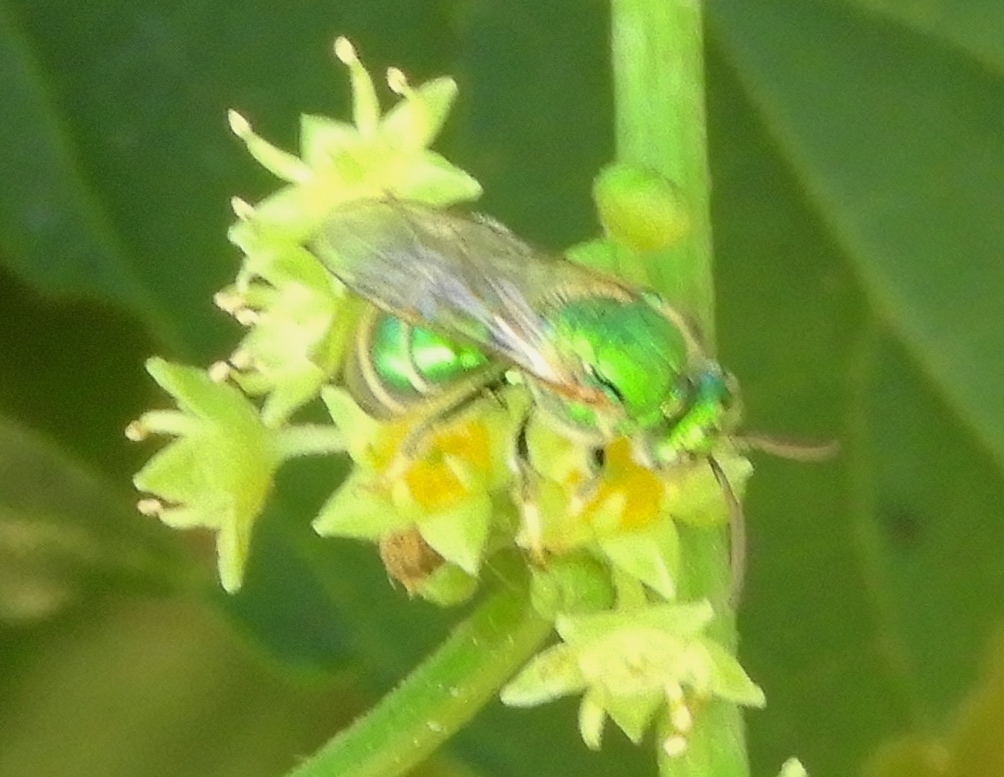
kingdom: Animalia
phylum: Arthropoda
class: Insecta
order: Hymenoptera
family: Halictidae
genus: Augochloropsis
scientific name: Augochloropsis
